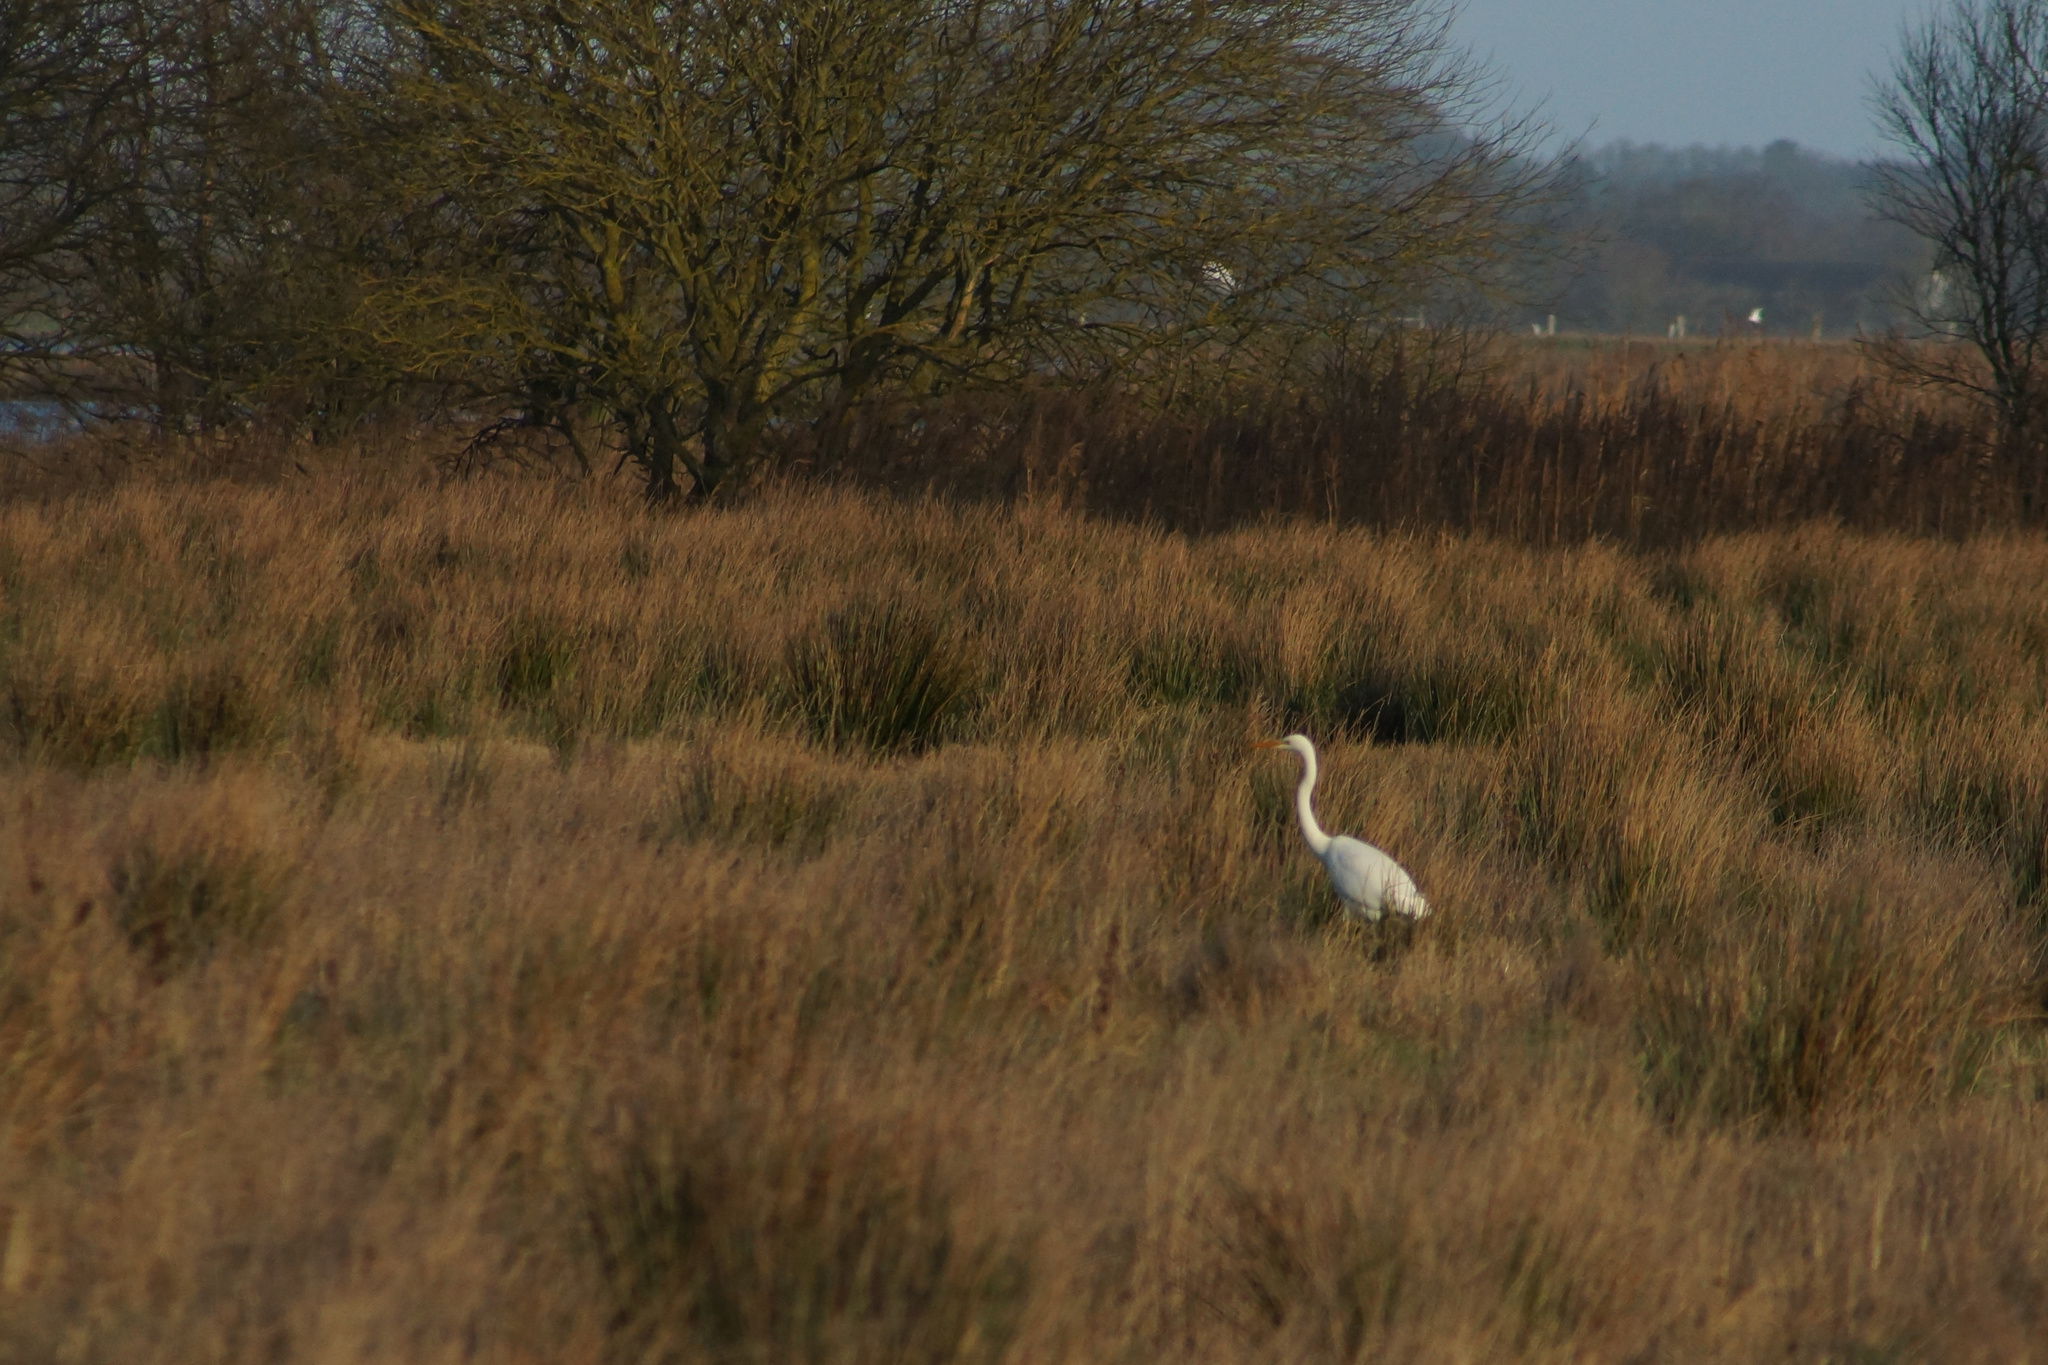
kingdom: Animalia
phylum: Chordata
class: Aves
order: Pelecaniformes
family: Ardeidae
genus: Ardea
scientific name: Ardea alba
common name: Great egret
